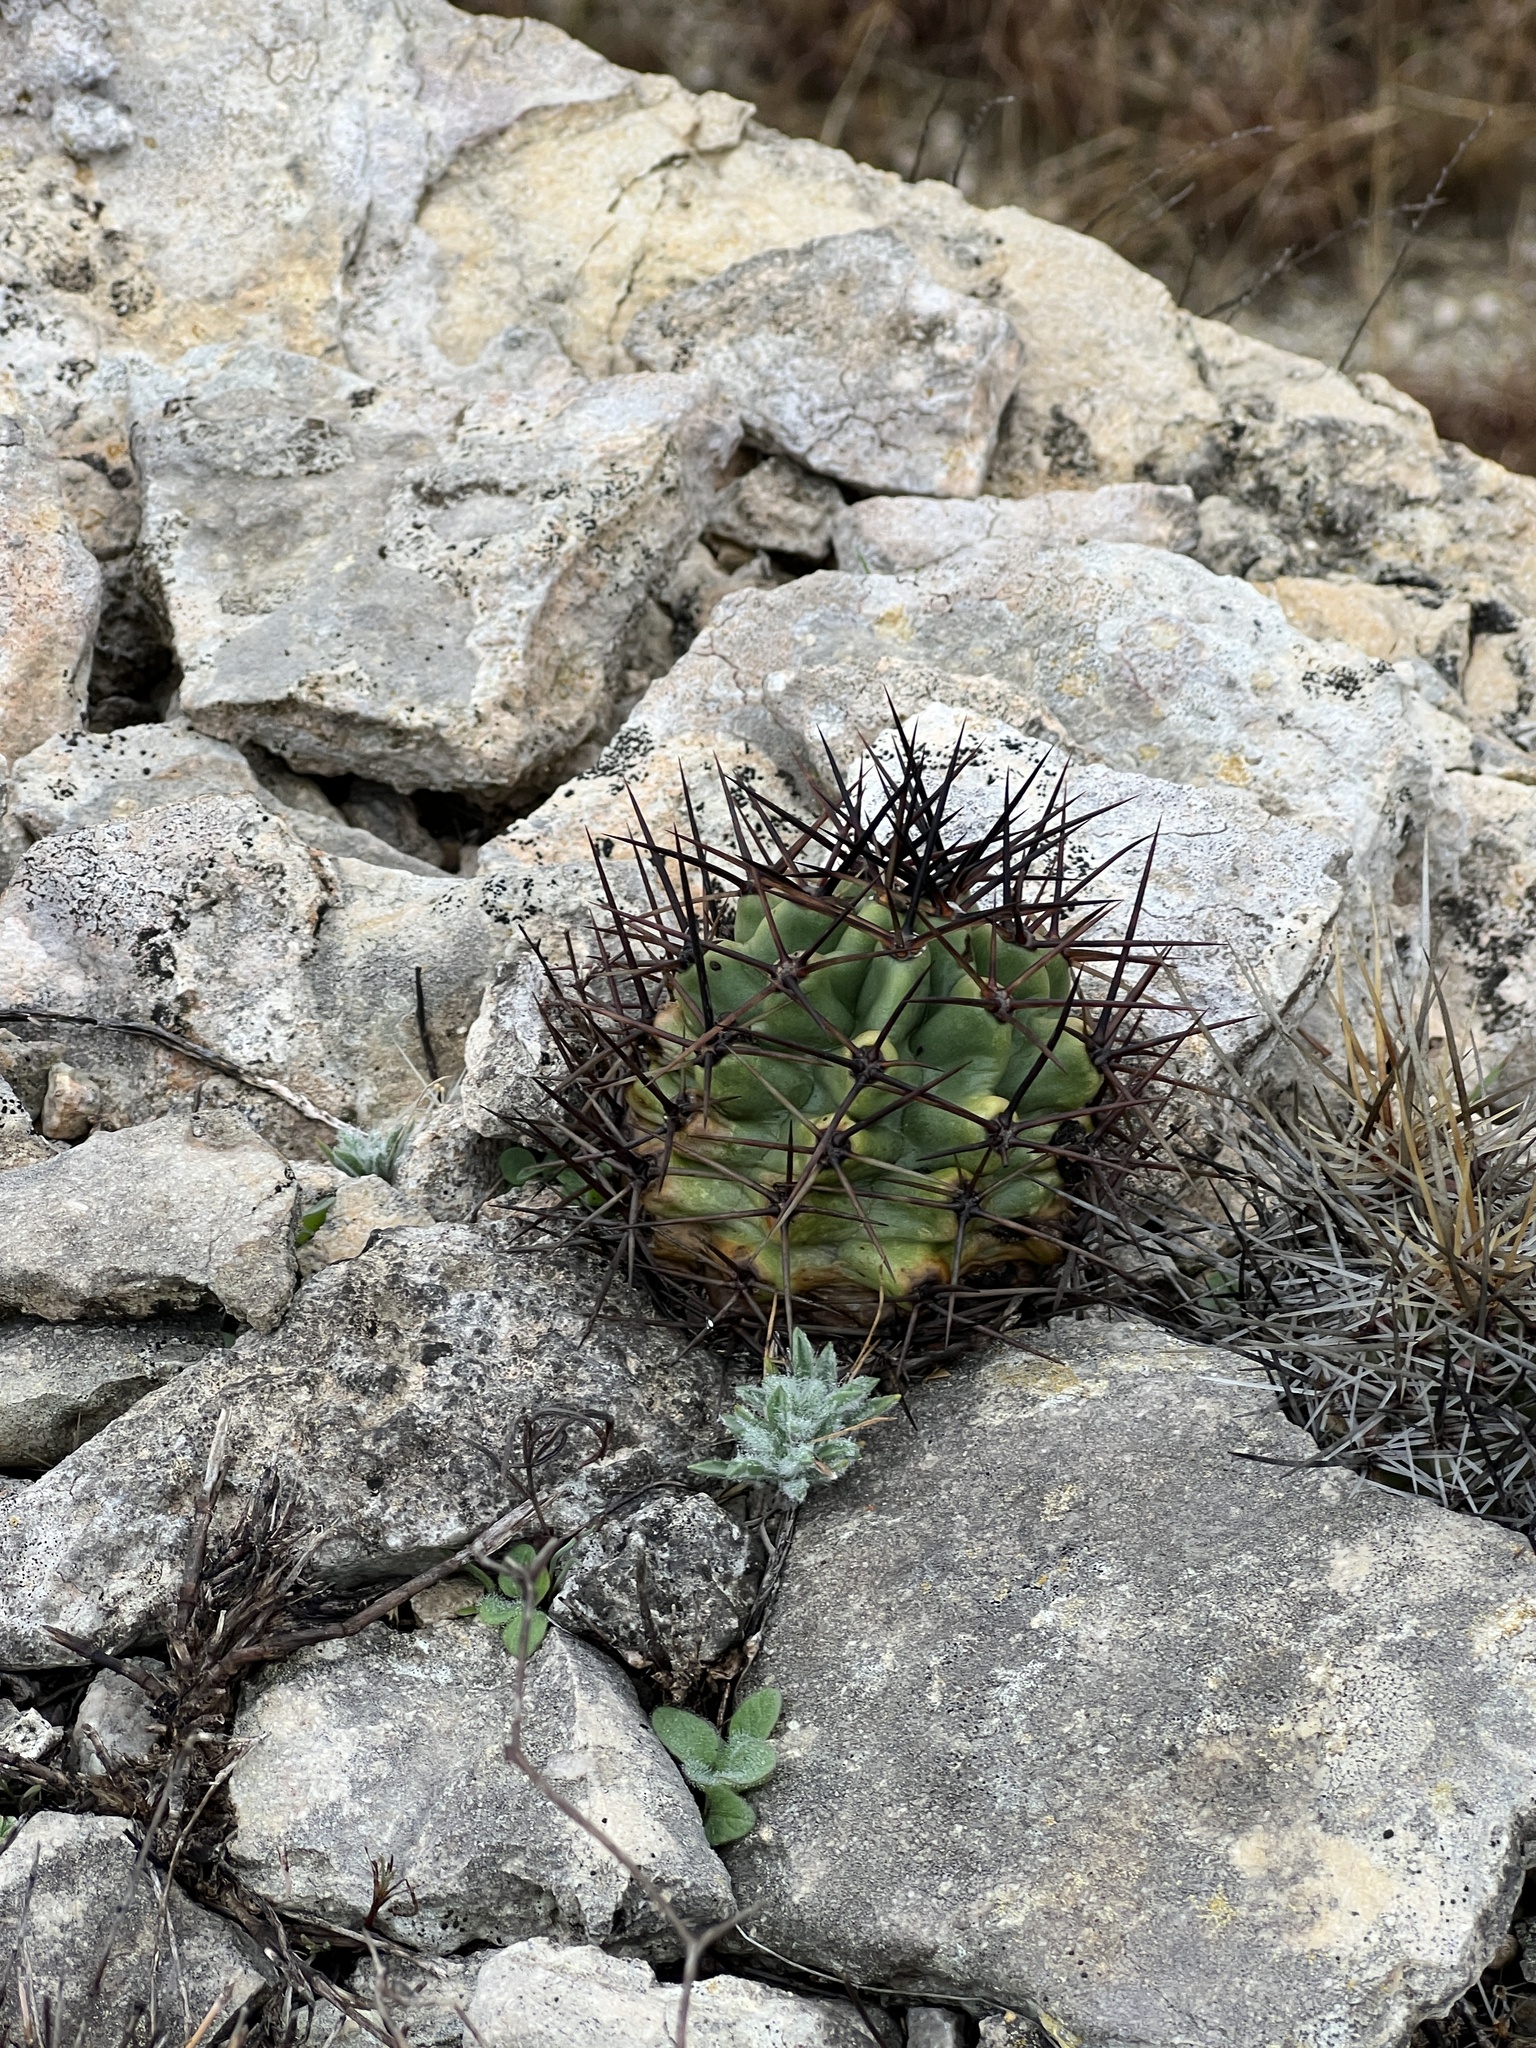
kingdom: Plantae
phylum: Tracheophyta
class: Magnoliopsida
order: Caryophyllales
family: Cactaceae
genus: Echinocereus
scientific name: Echinocereus coccineus
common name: Scarlet hedgehog cactus
